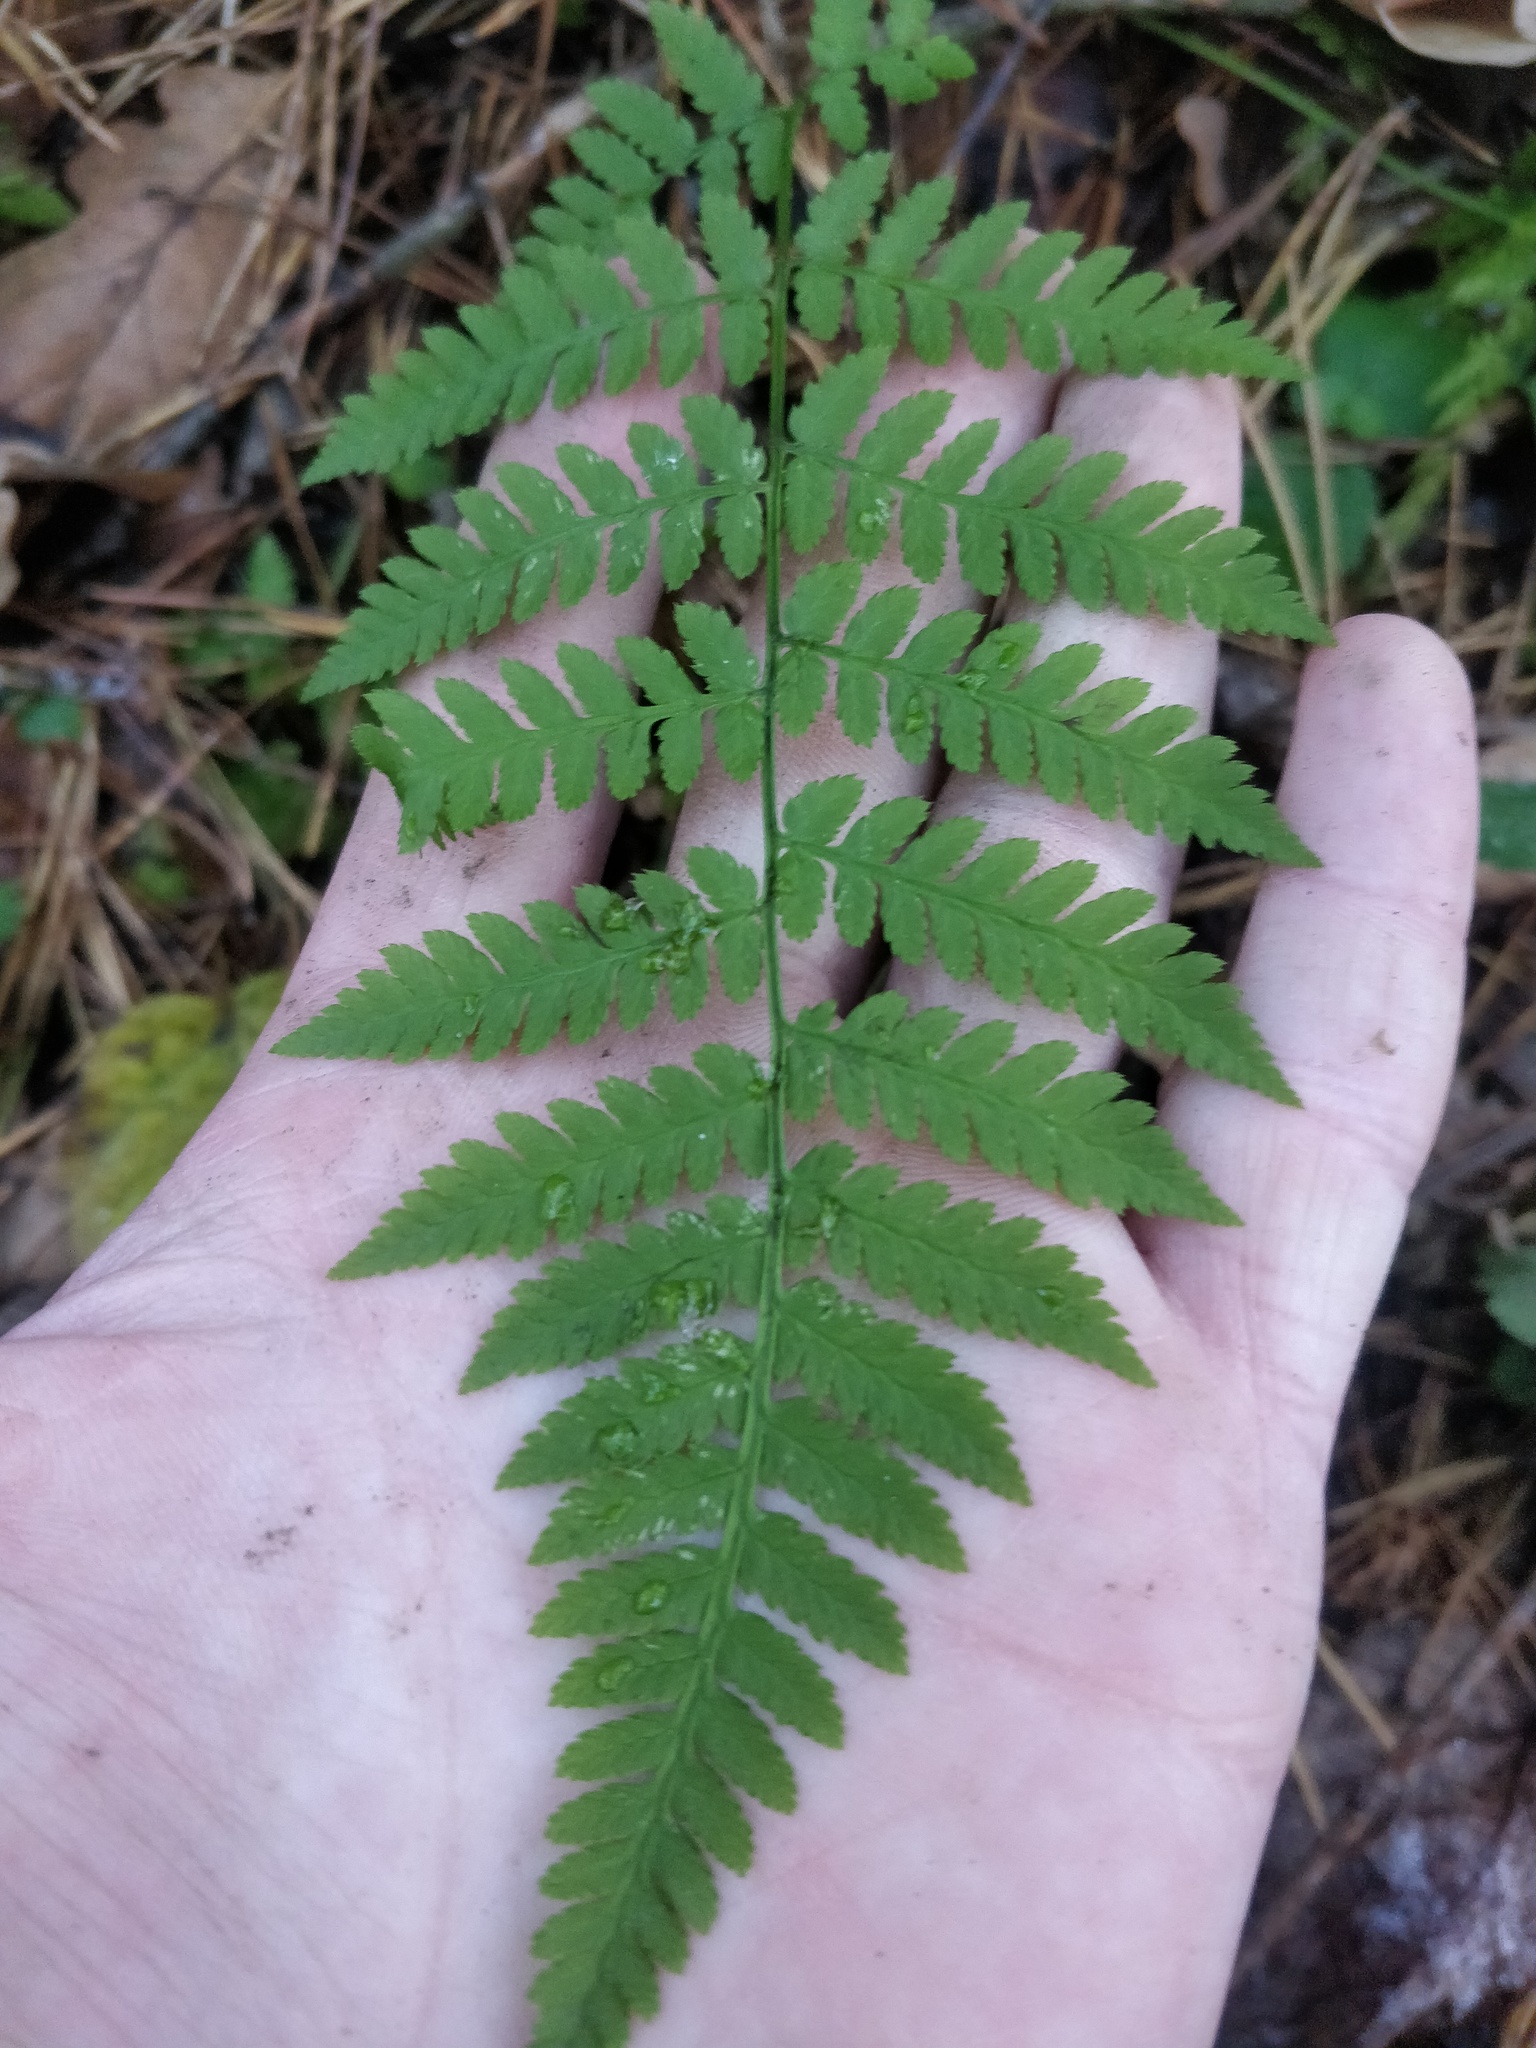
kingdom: Plantae
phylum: Tracheophyta
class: Polypodiopsida
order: Polypodiales
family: Dryopteridaceae
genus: Dryopteris
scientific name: Dryopteris carthusiana
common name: Narrow buckler-fern
